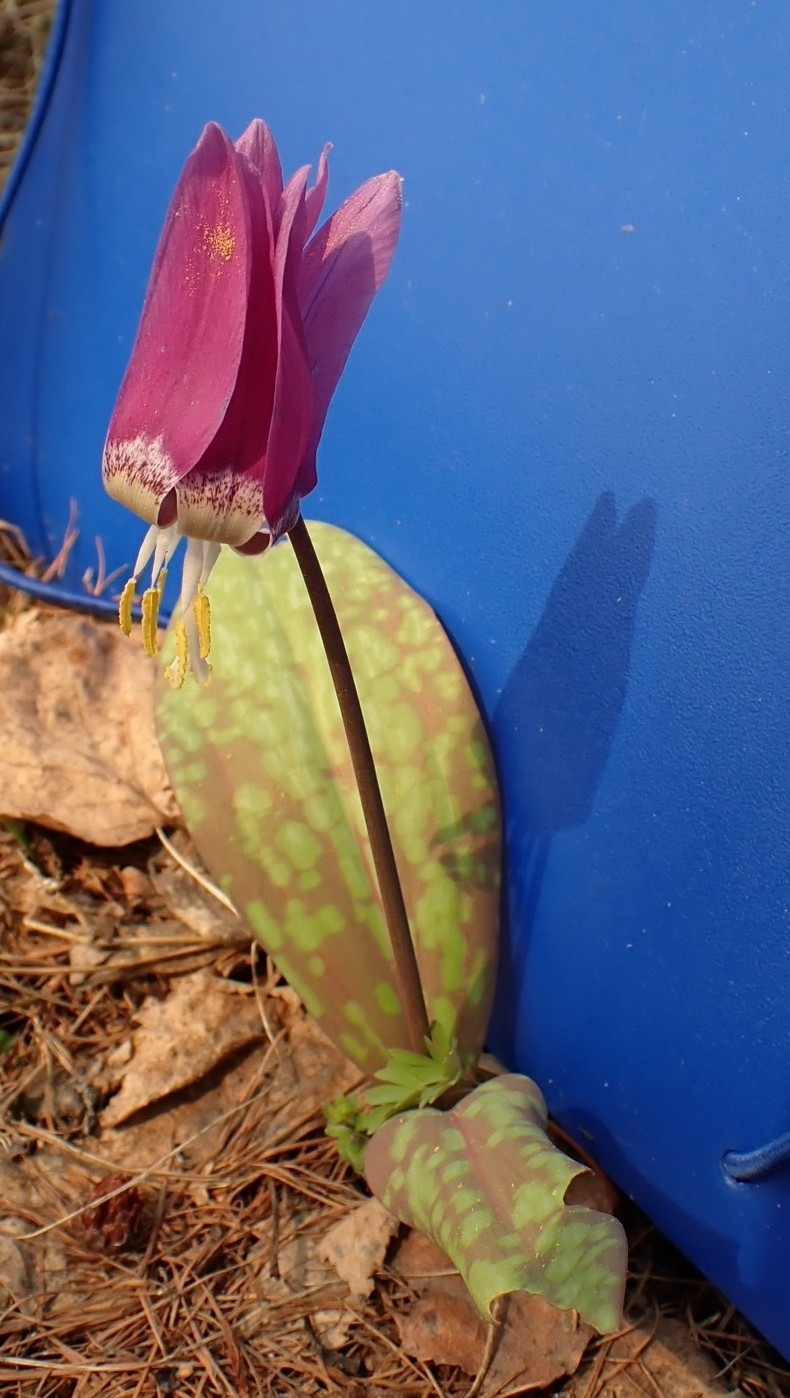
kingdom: Plantae
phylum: Tracheophyta
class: Liliopsida
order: Liliales
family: Liliaceae
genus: Erythronium
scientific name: Erythronium sibiricum
